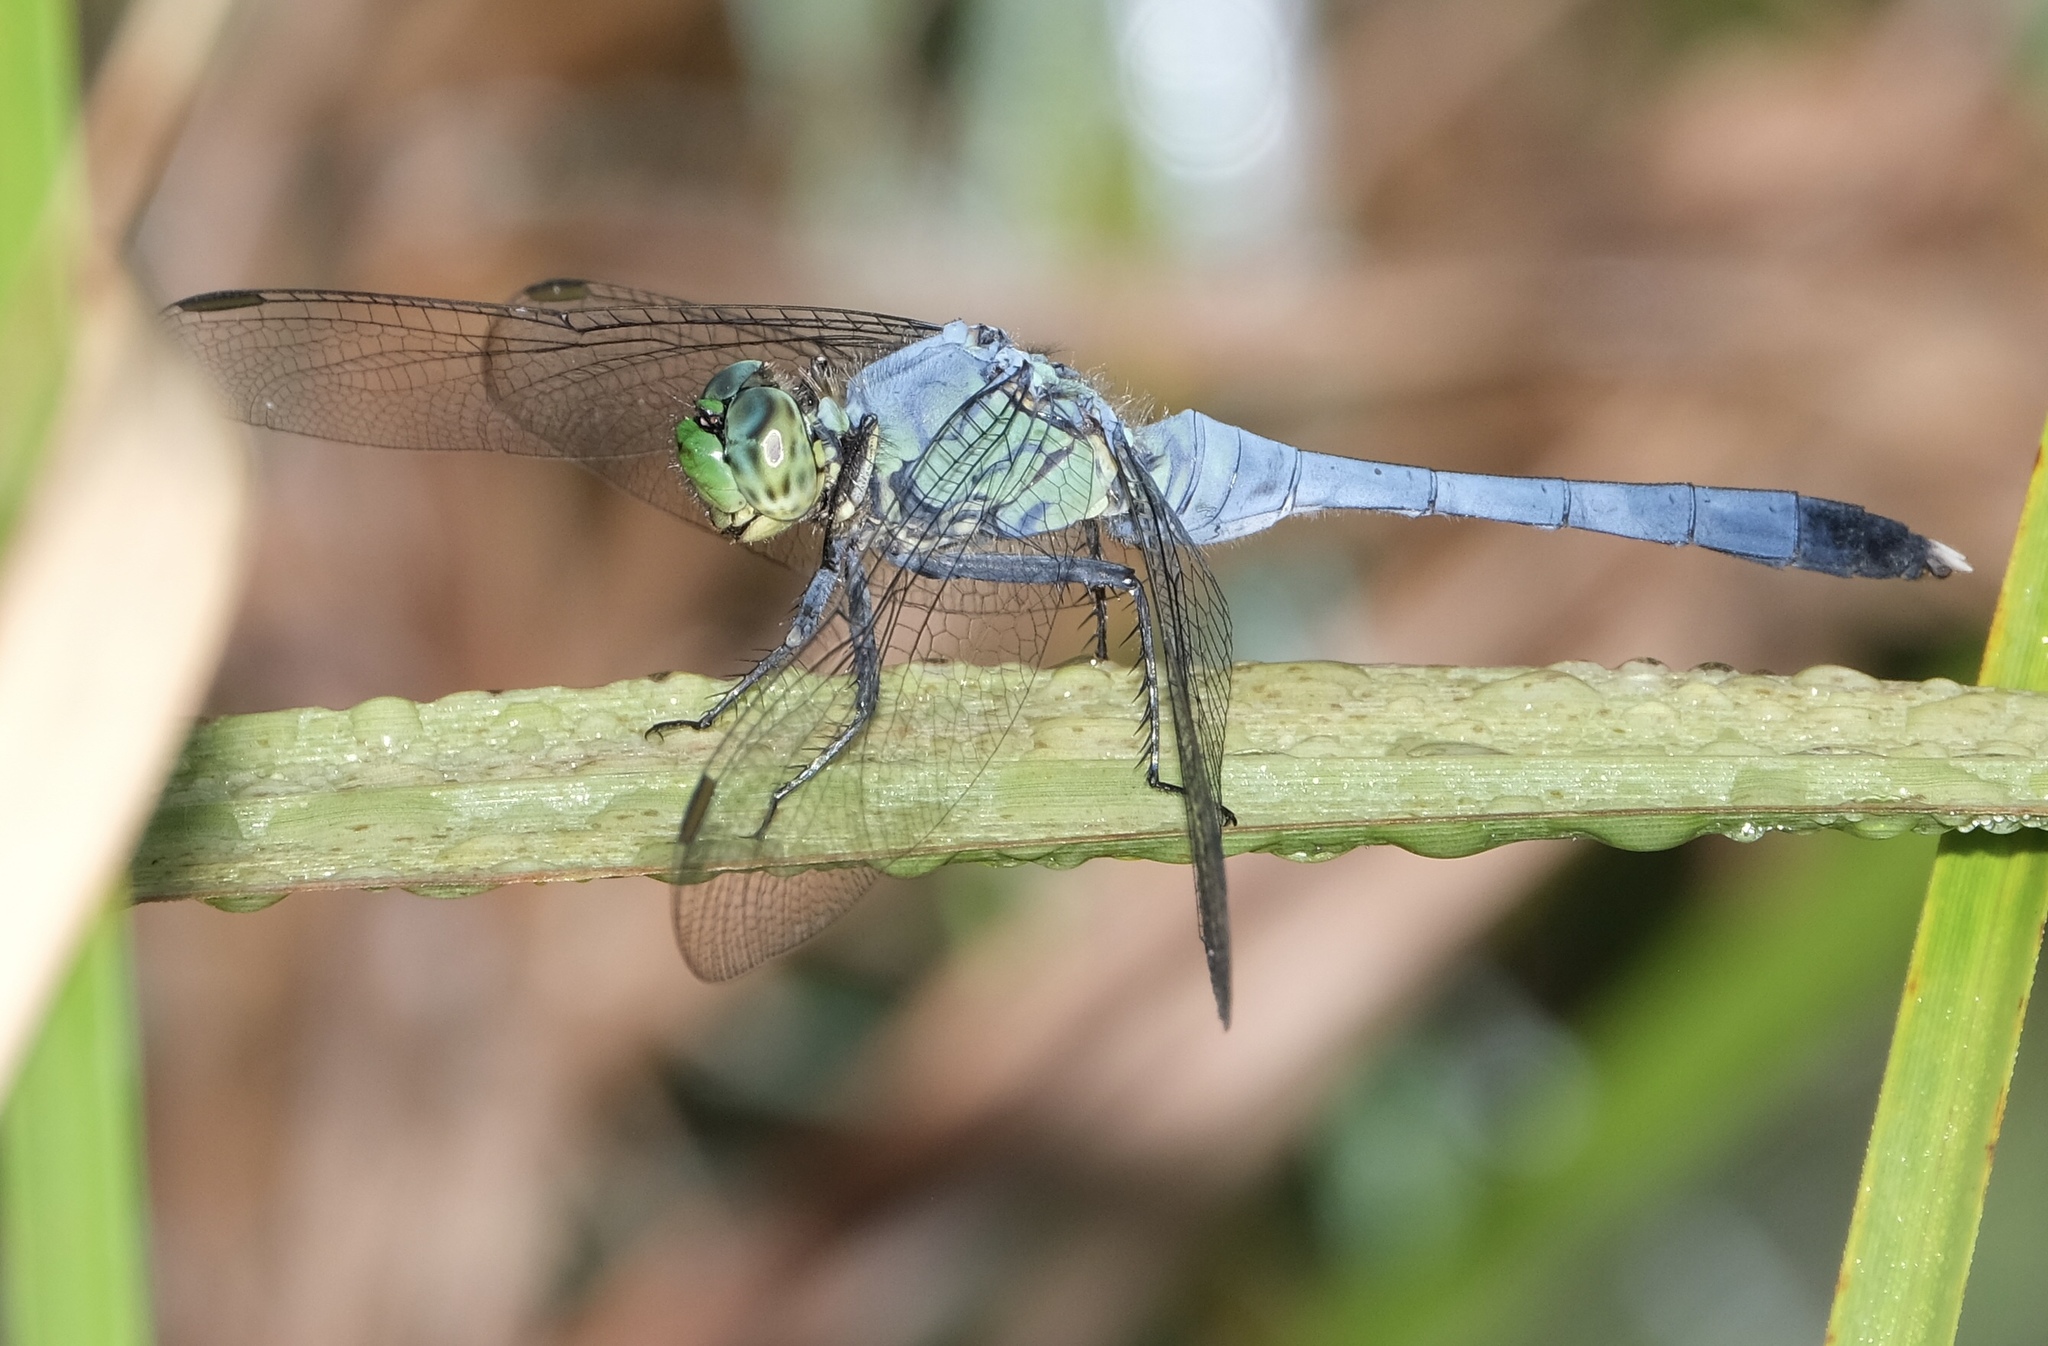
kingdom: Animalia
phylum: Arthropoda
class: Insecta
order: Odonata
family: Libellulidae
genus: Erythemis
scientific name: Erythemis simplicicollis
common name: Eastern pondhawk
